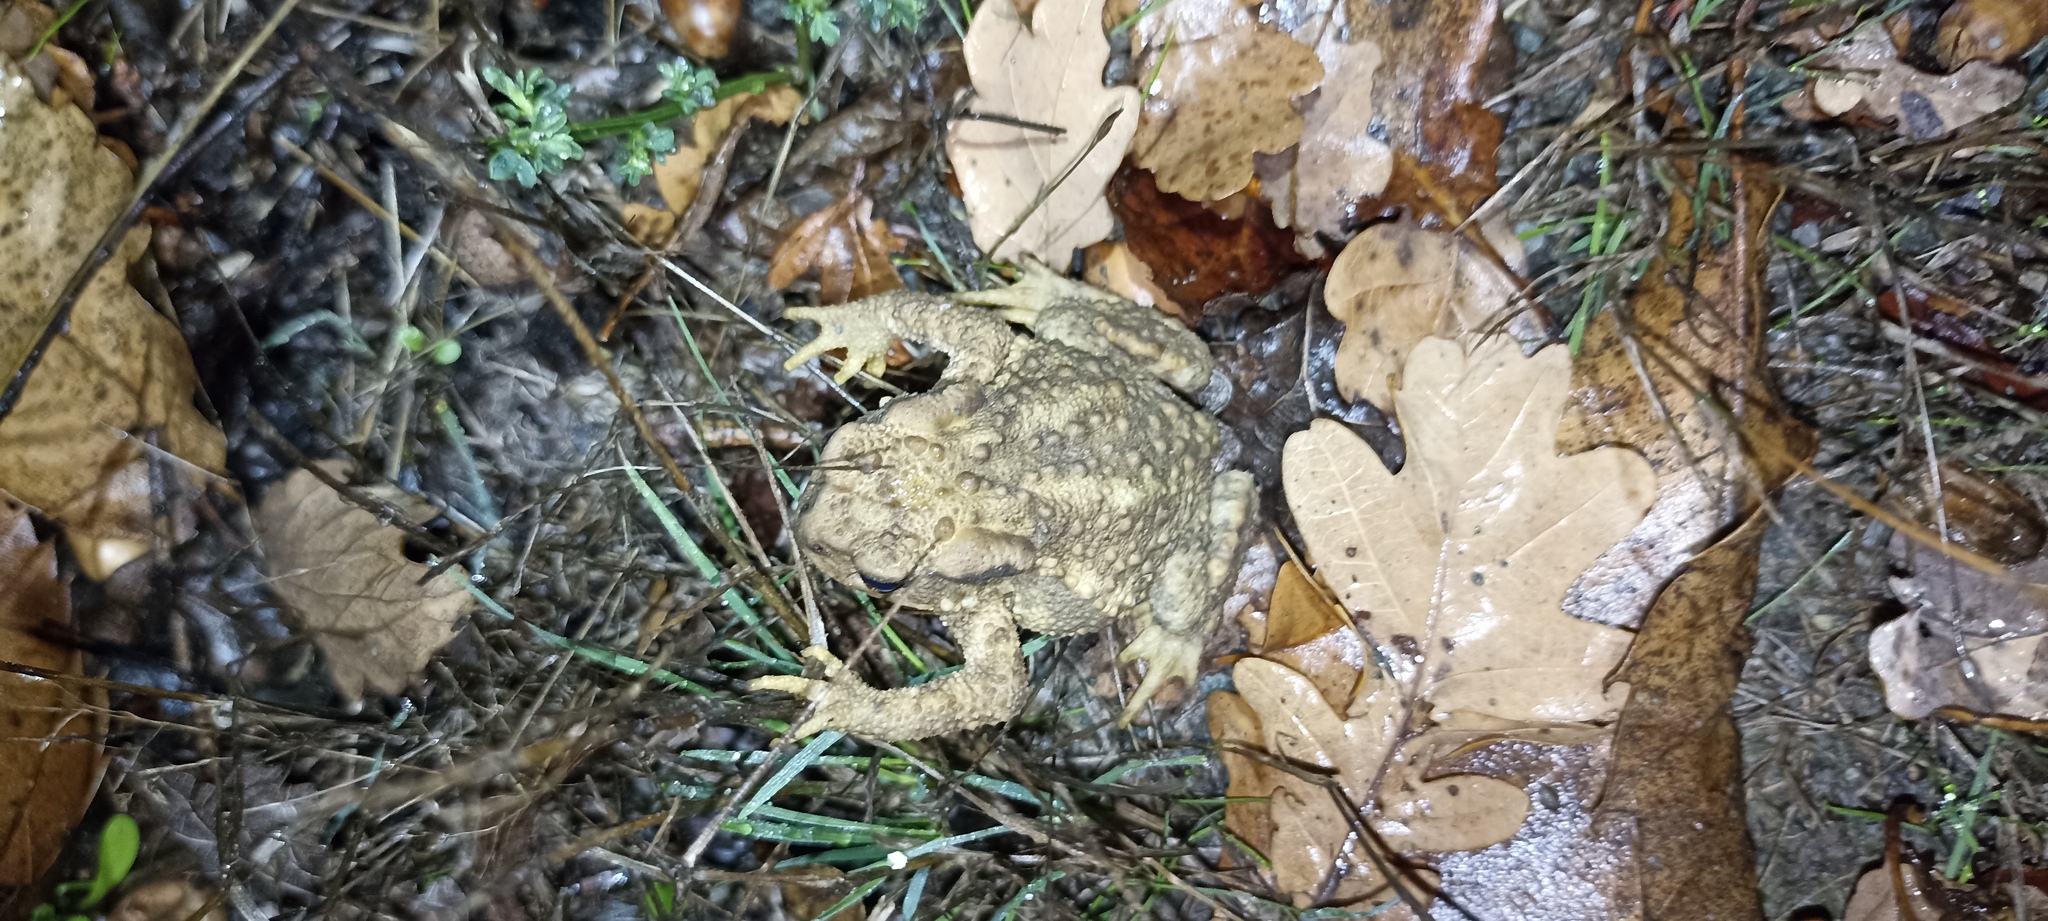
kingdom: Animalia
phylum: Chordata
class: Amphibia
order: Anura
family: Bufonidae
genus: Bufo
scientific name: Bufo spinosus
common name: Western common toad
